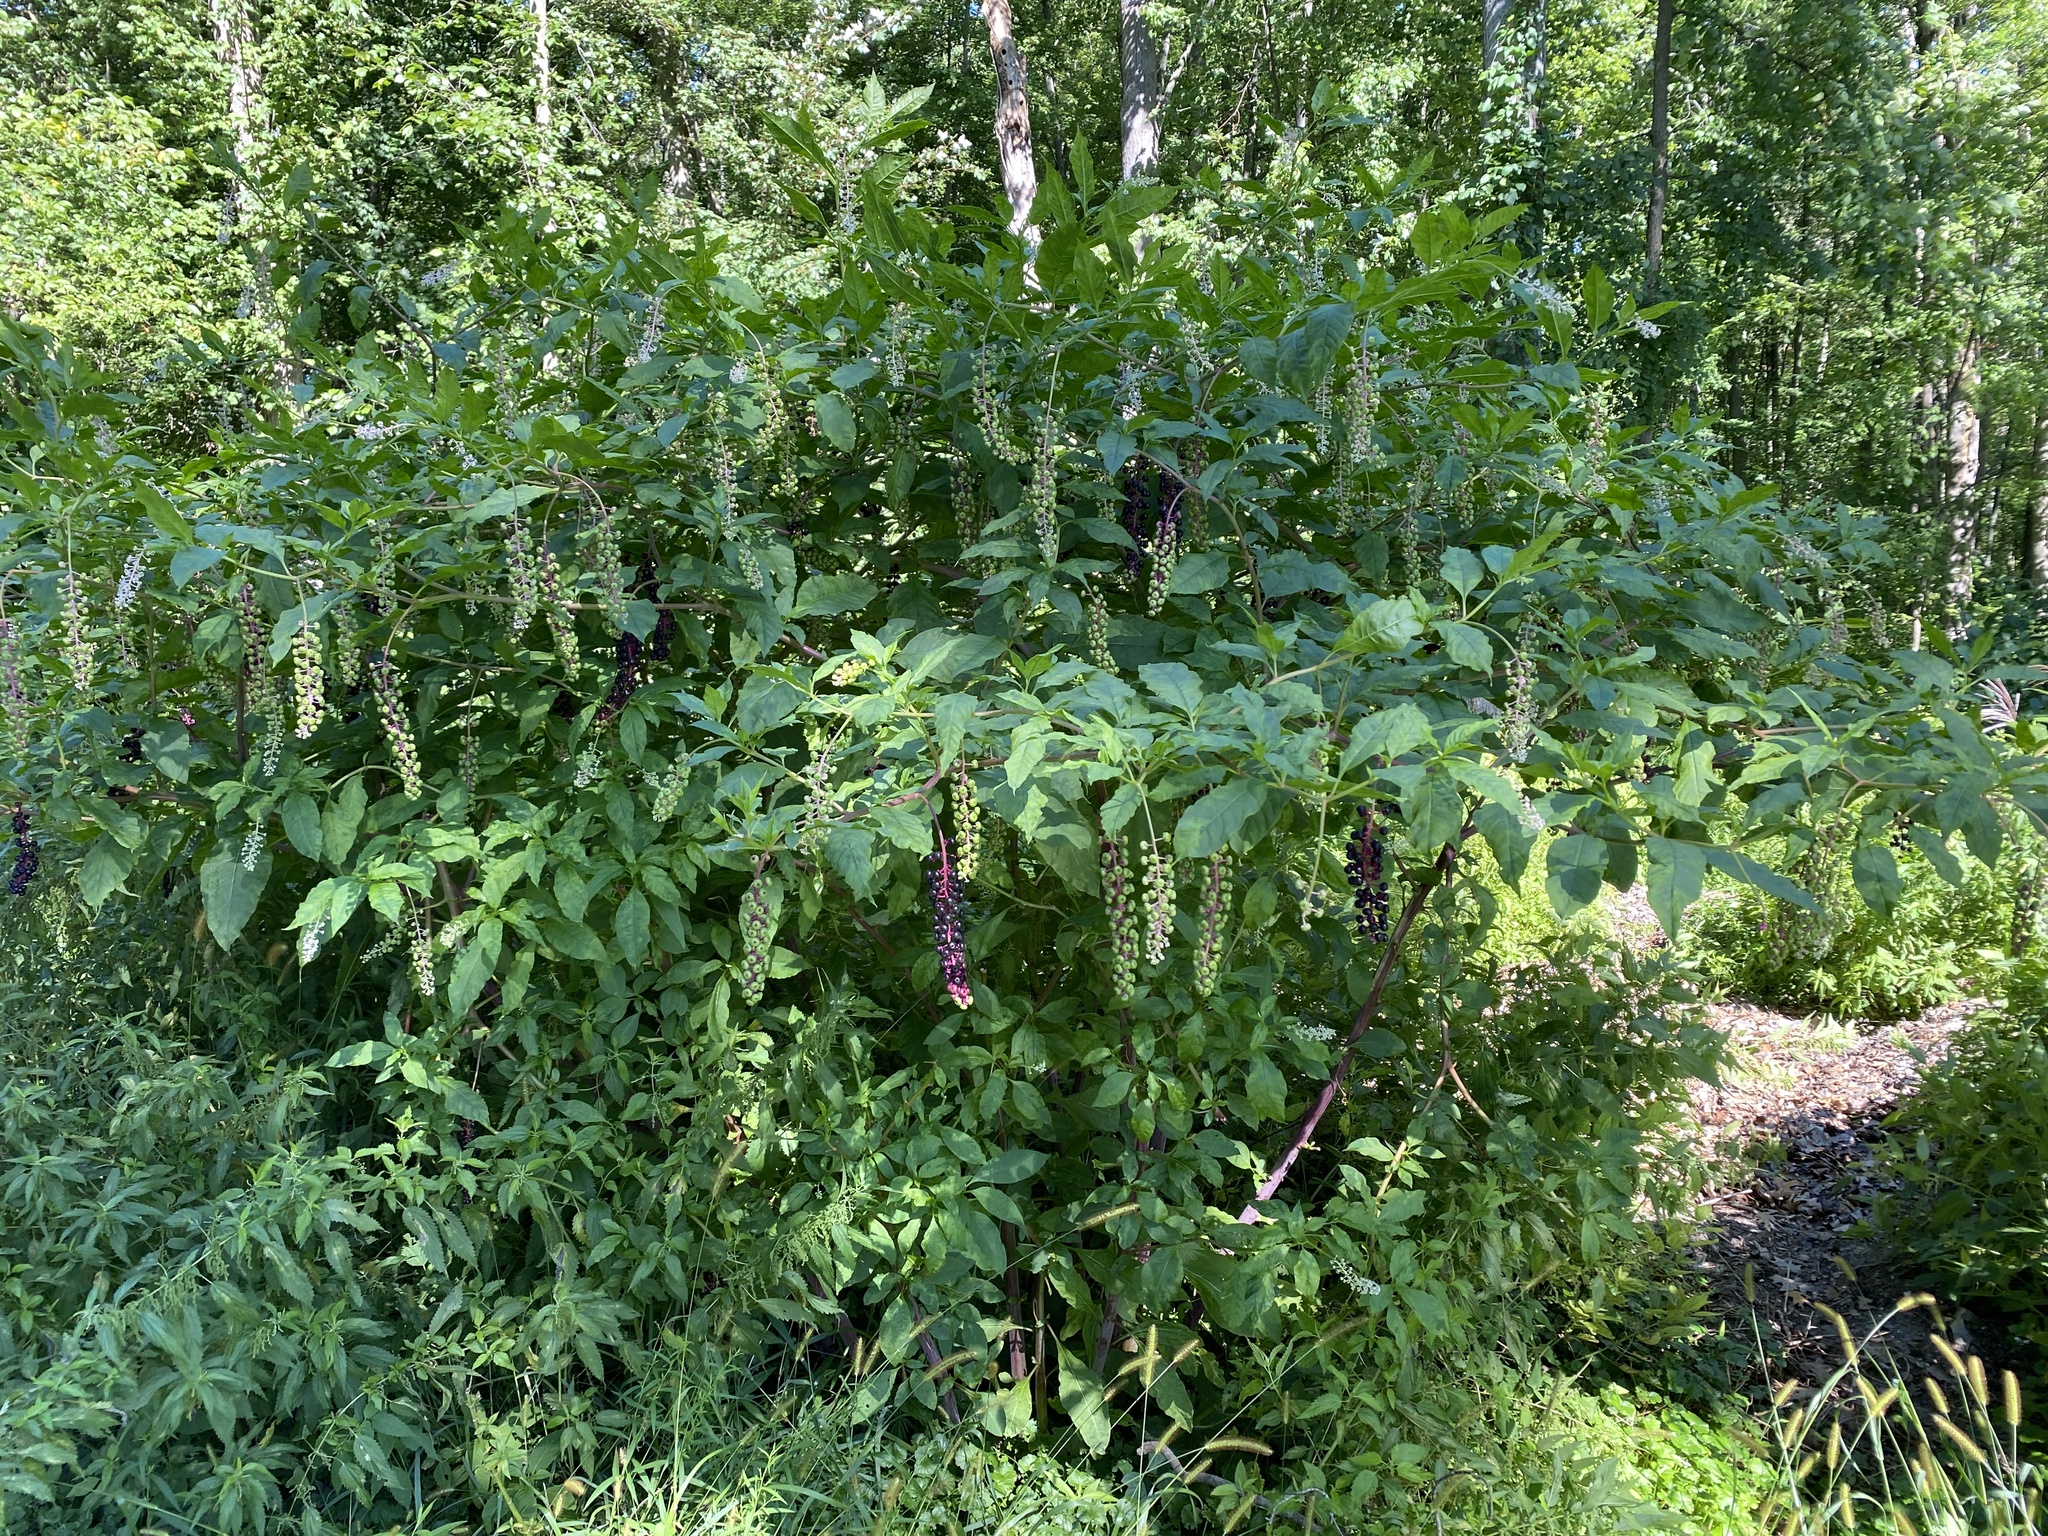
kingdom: Plantae
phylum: Tracheophyta
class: Magnoliopsida
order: Caryophyllales
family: Phytolaccaceae
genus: Phytolacca
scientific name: Phytolacca americana
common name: American pokeweed
